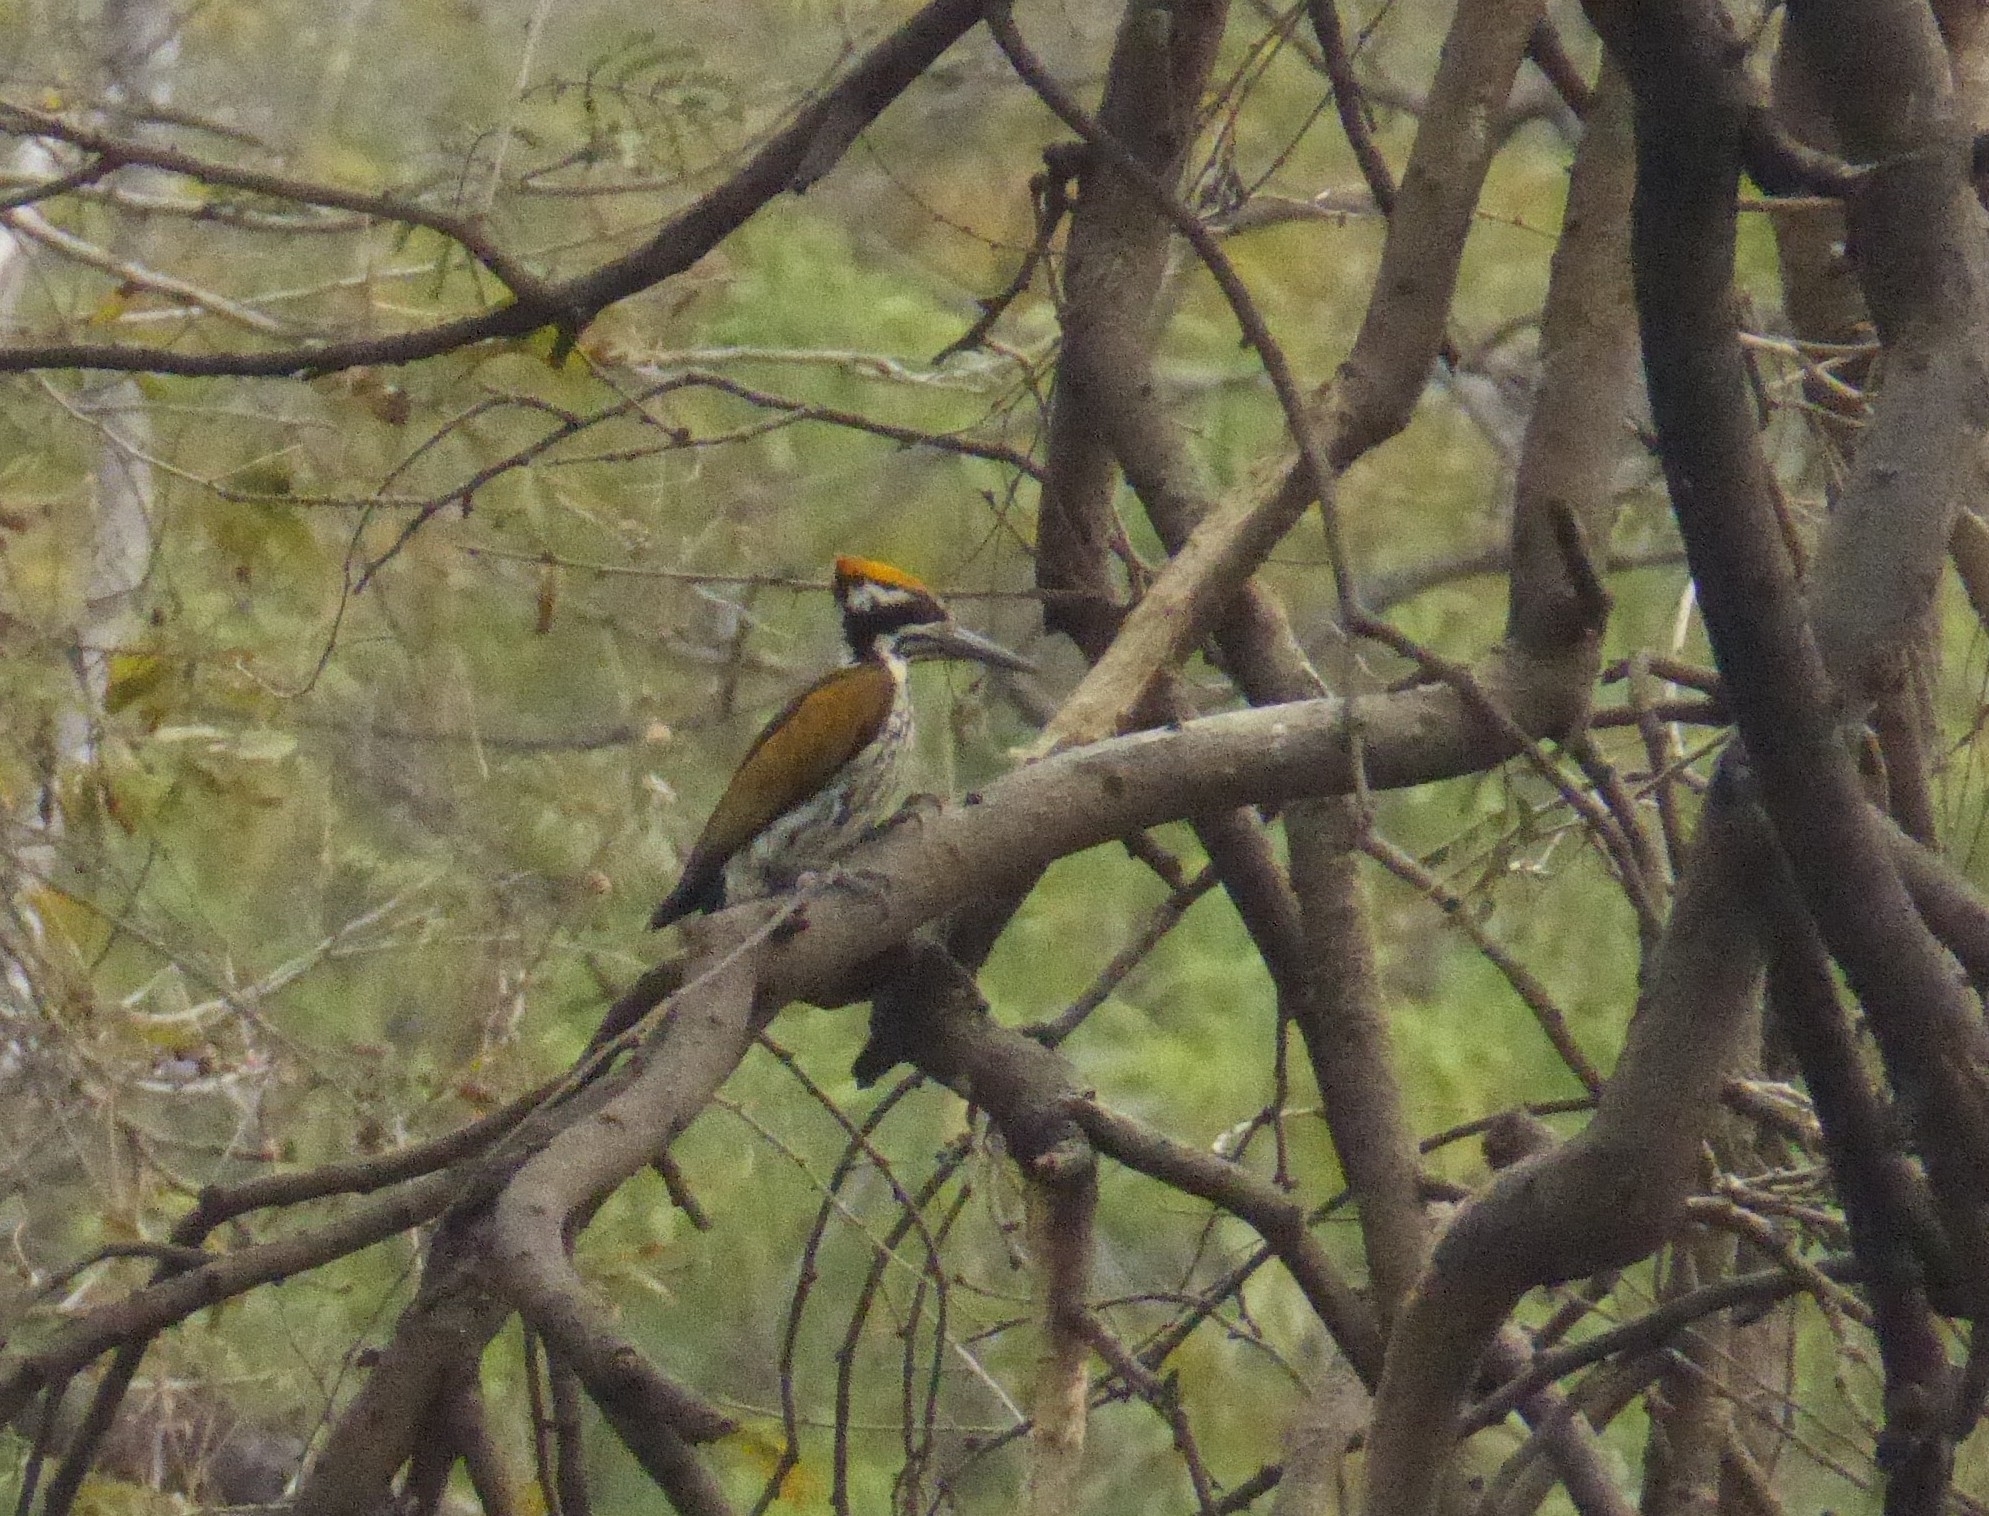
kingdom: Animalia
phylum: Chordata
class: Aves
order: Piciformes
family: Picidae
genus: Chrysocolaptes
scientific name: Chrysocolaptes festivus
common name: White-naped woodpecker
